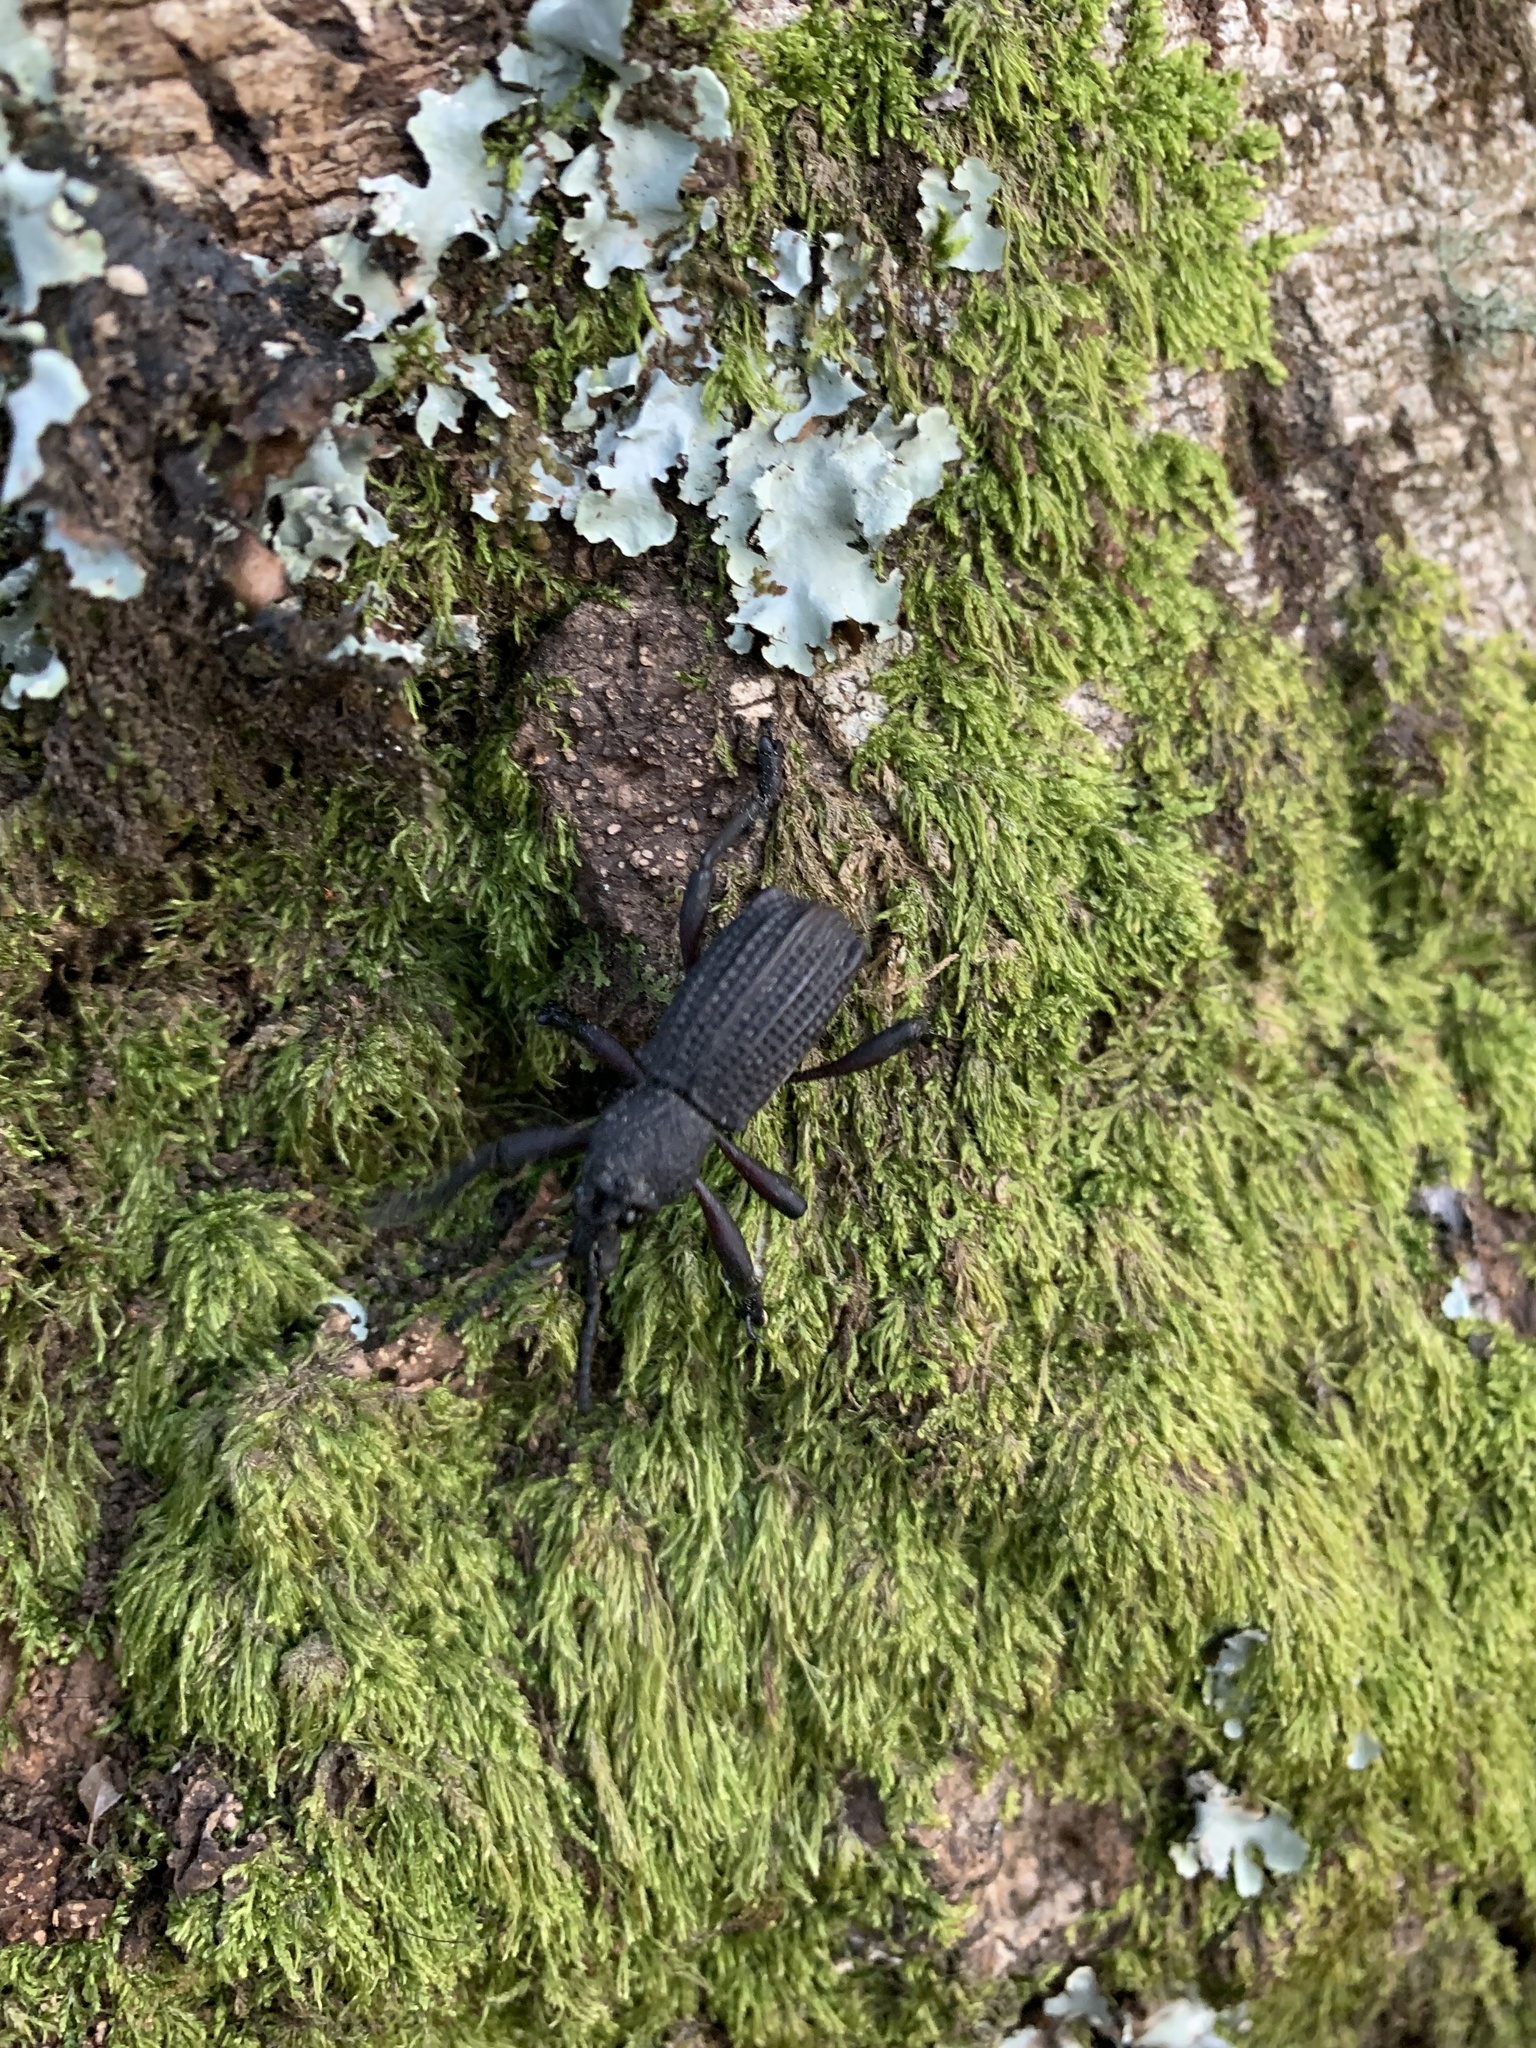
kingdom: Animalia
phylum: Arthropoda
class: Insecta
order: Coleoptera
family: Curculionidae
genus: Aegorhinus
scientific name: Aegorhinus
